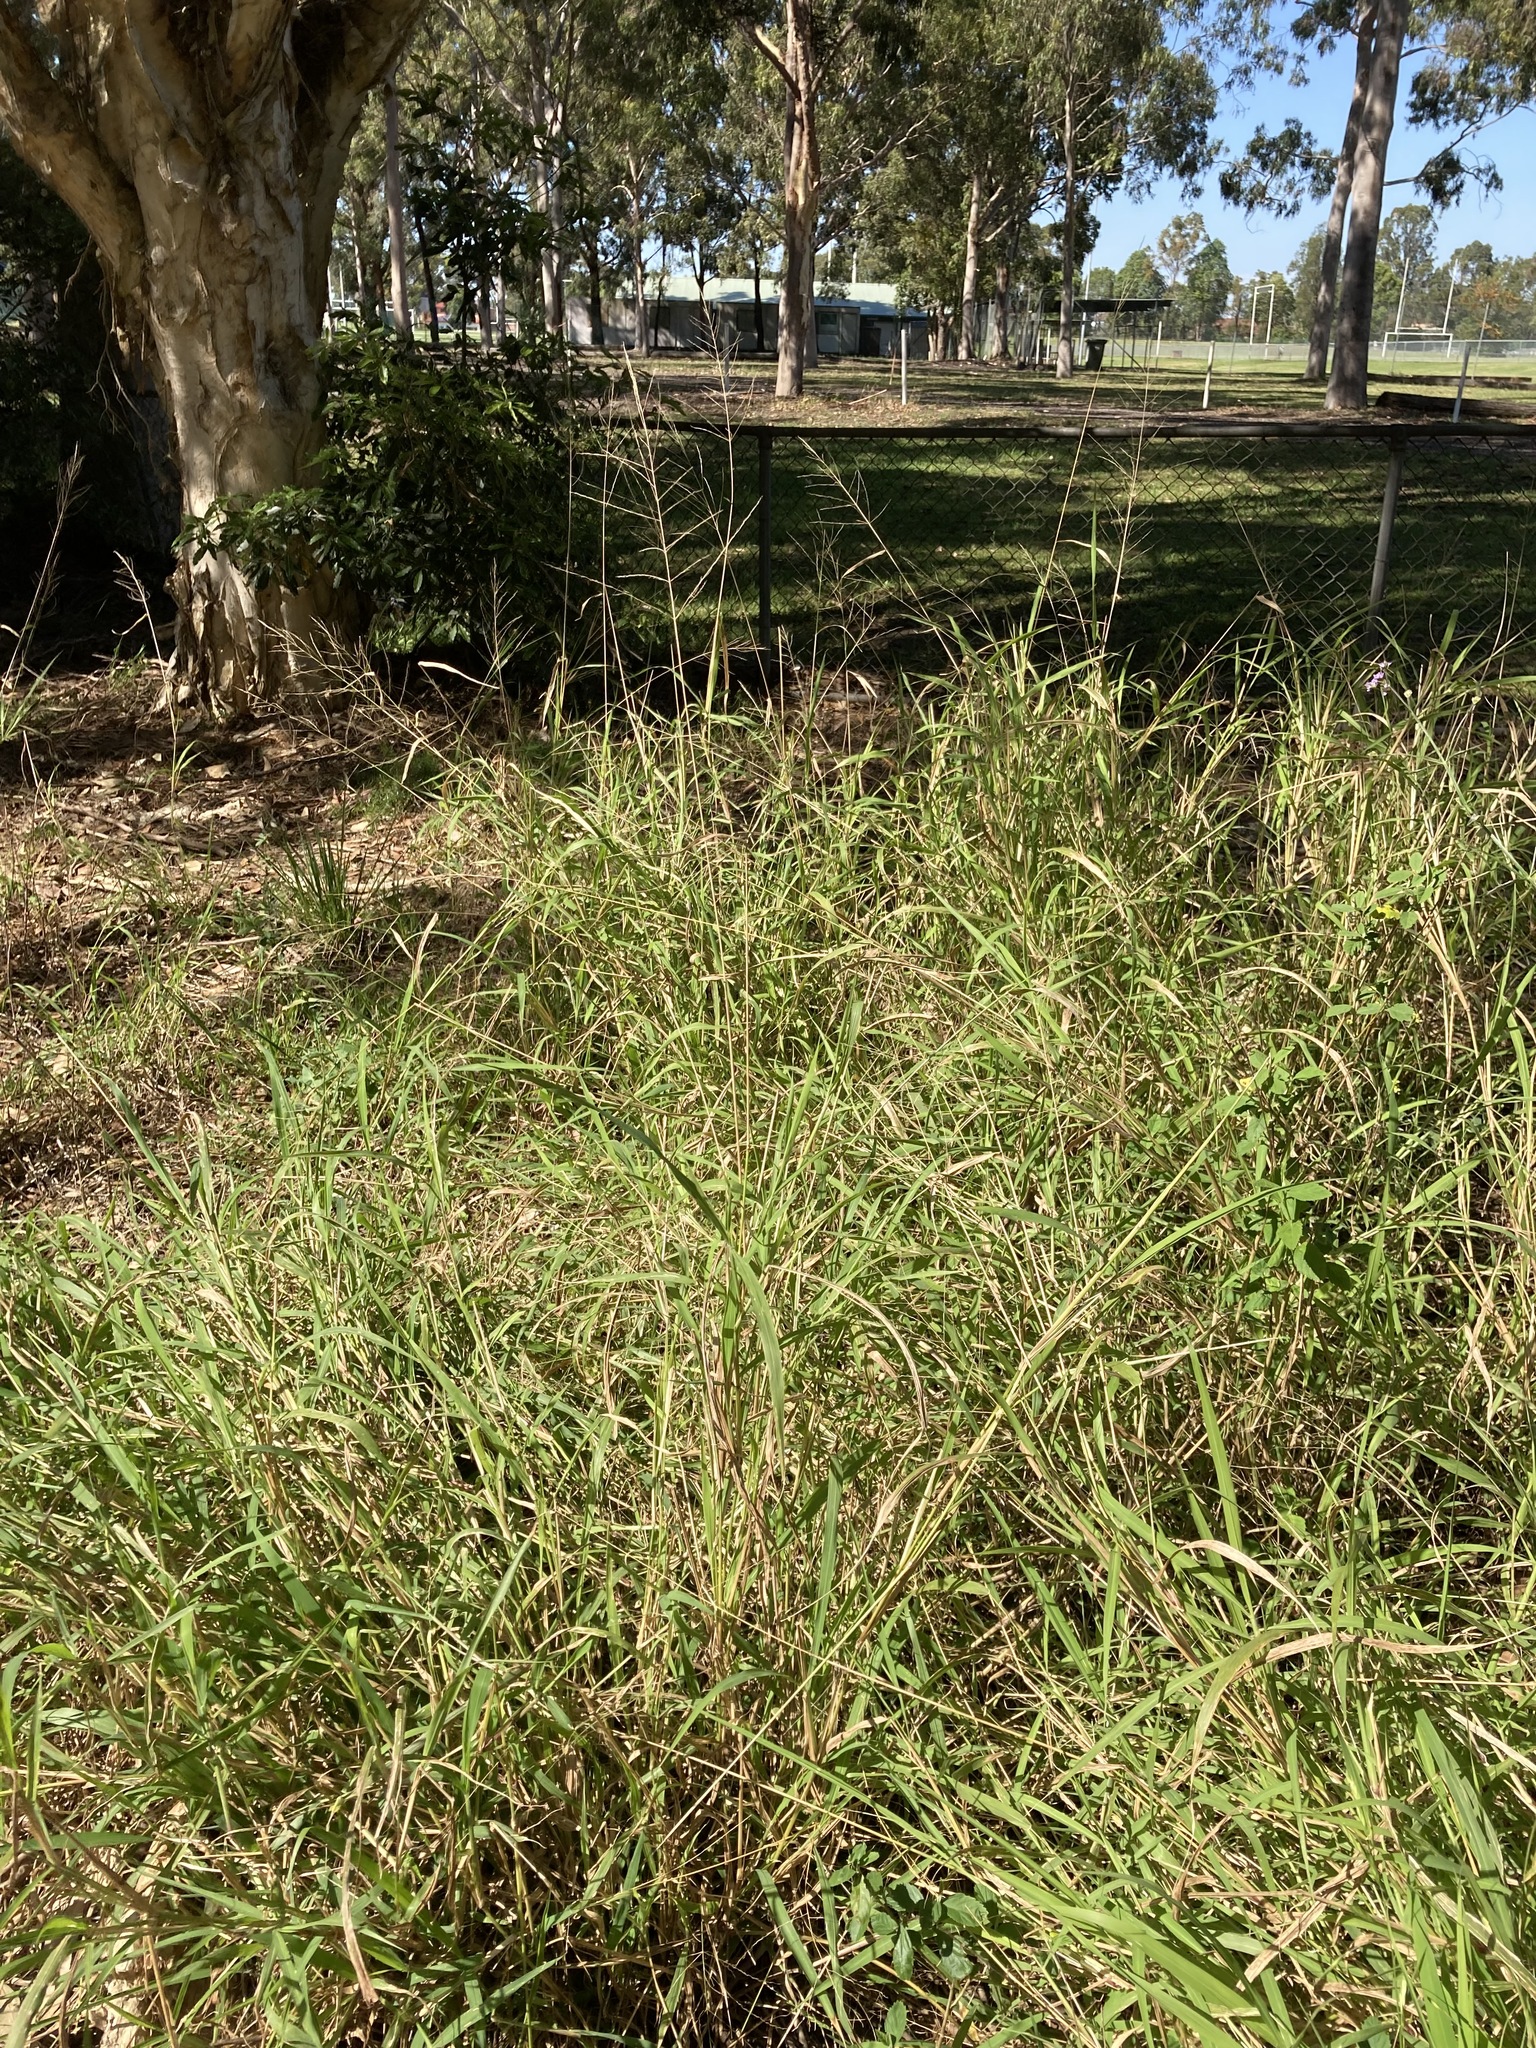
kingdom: Plantae
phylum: Tracheophyta
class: Liliopsida
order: Poales
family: Poaceae
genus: Megathyrsus
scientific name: Megathyrsus maximus
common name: Guineagrass
